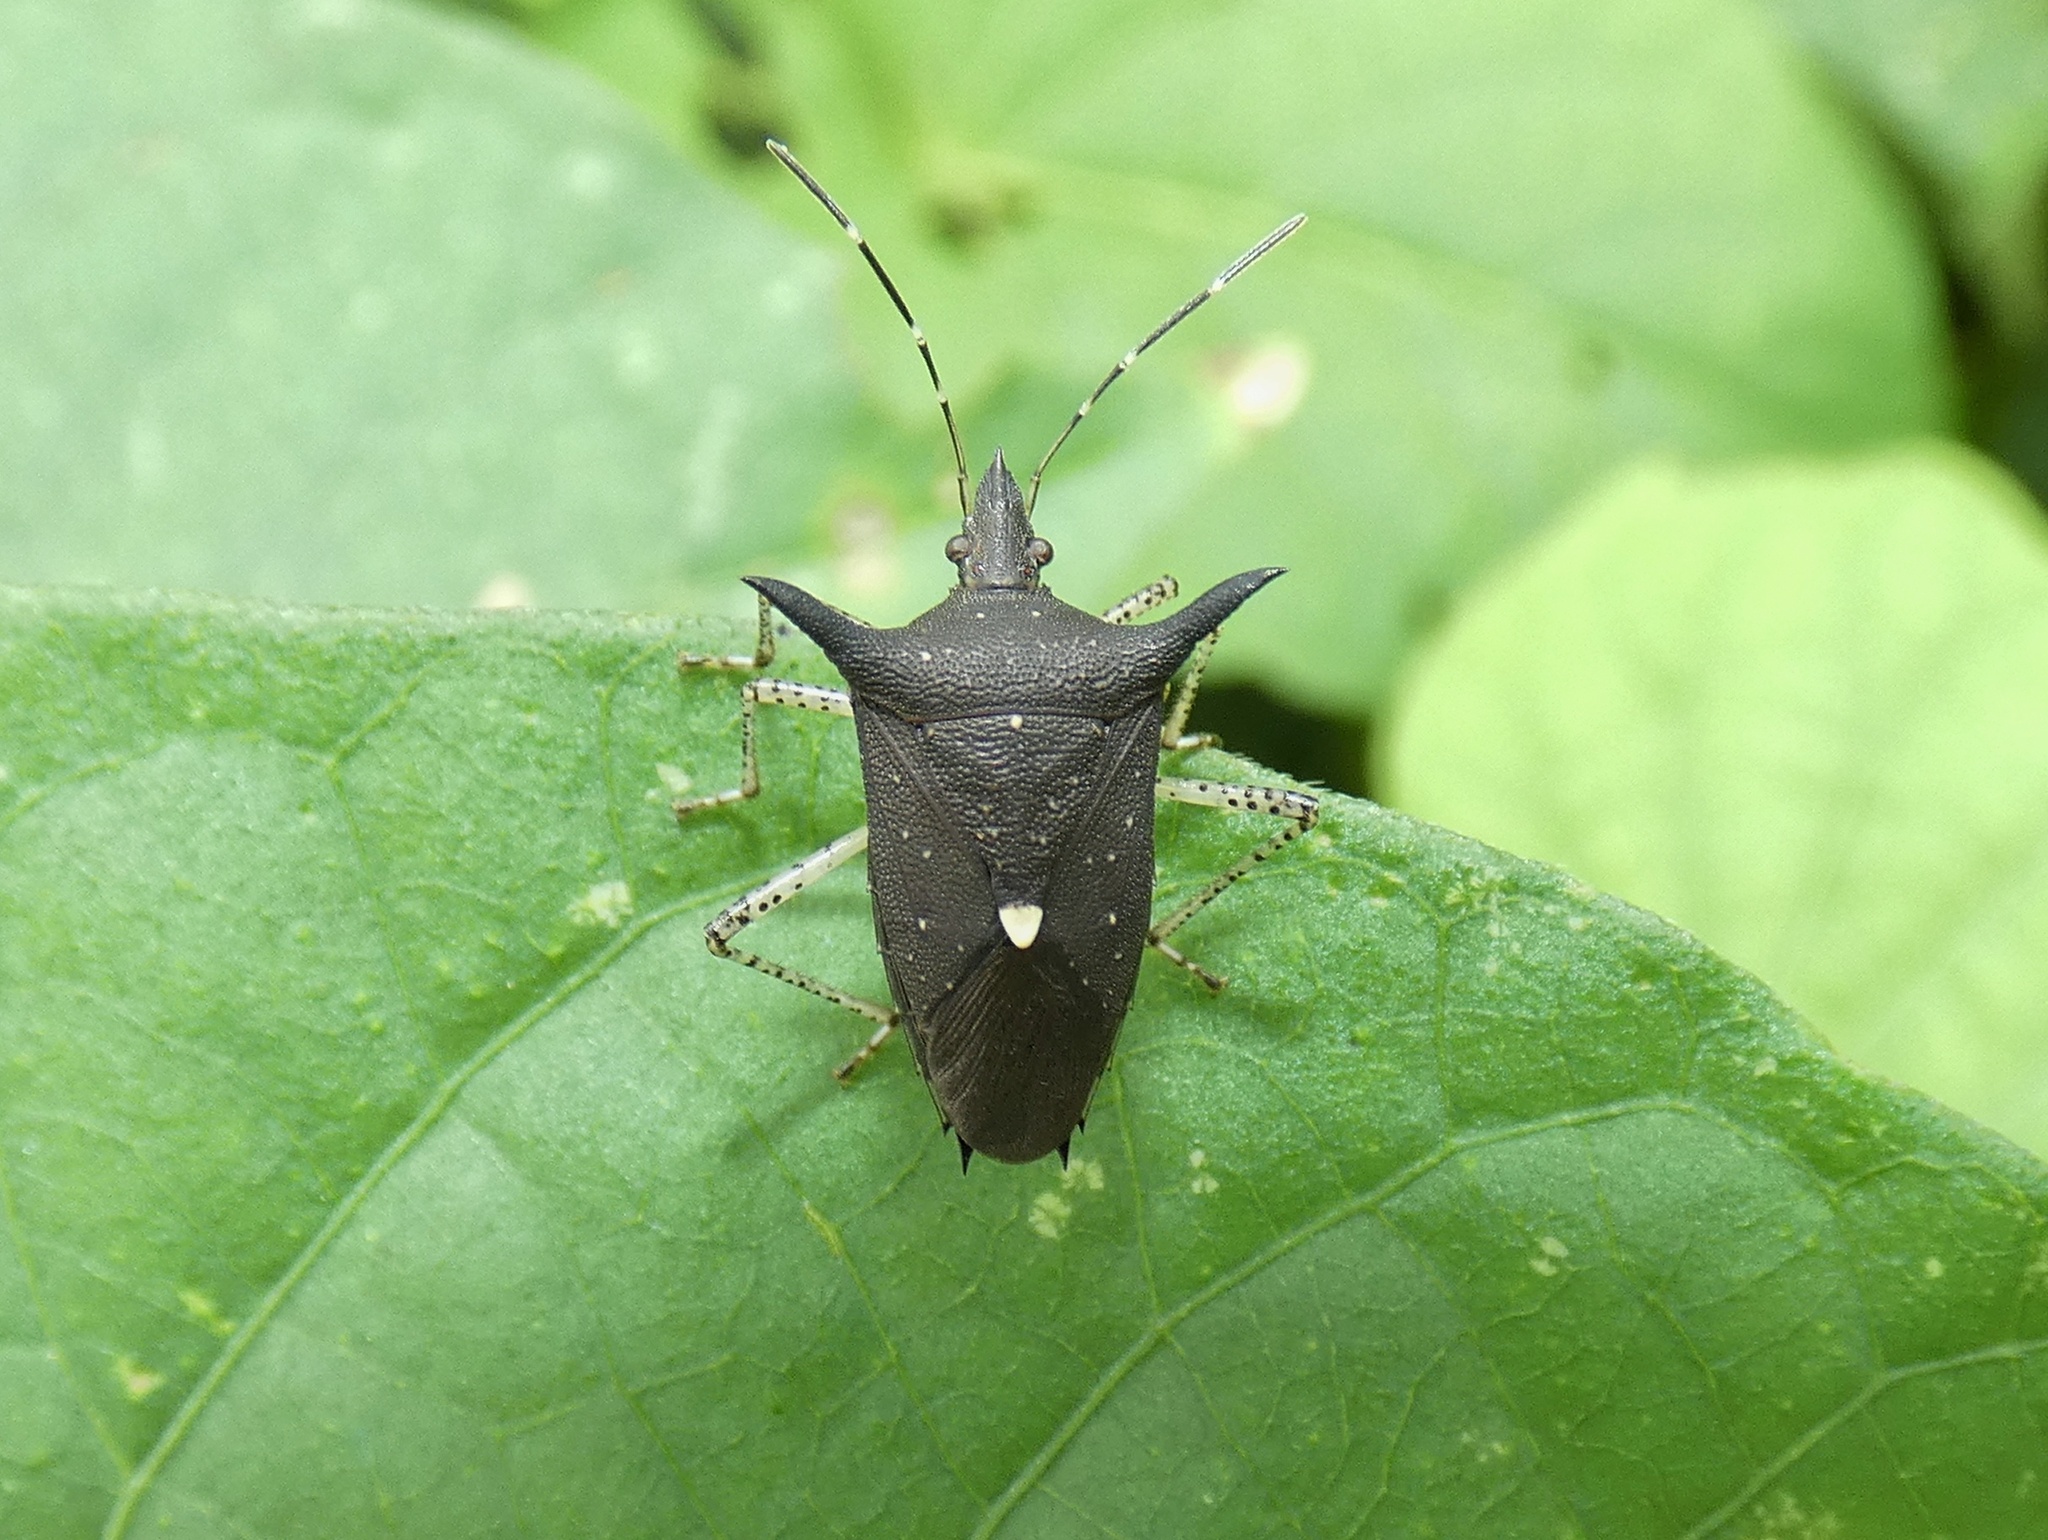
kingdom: Animalia
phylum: Arthropoda
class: Insecta
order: Hemiptera
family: Pentatomidae
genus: Proxys
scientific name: Proxys albopunctulatus
